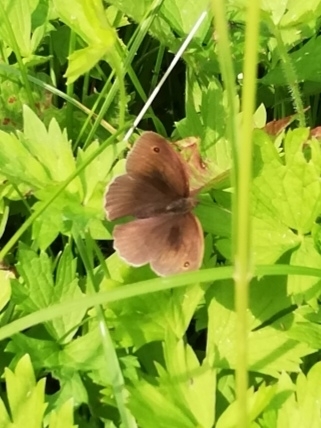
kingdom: Animalia
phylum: Arthropoda
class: Insecta
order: Lepidoptera
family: Nymphalidae
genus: Maniola
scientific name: Maniola jurtina
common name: Meadow brown
